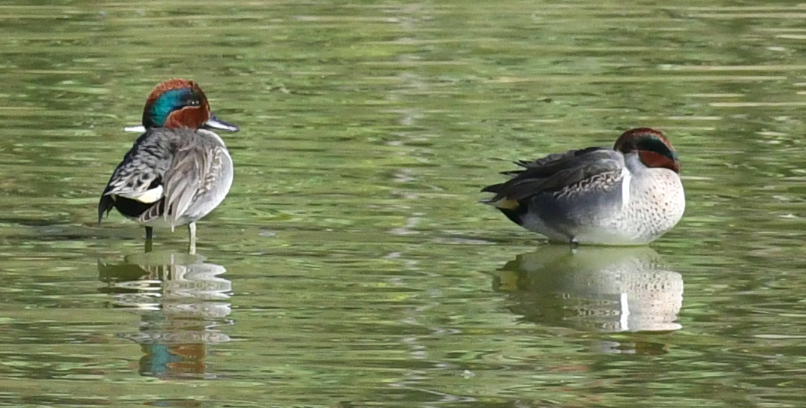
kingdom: Animalia
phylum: Chordata
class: Aves
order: Anseriformes
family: Anatidae
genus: Anas
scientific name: Anas crecca
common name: Eurasian teal
